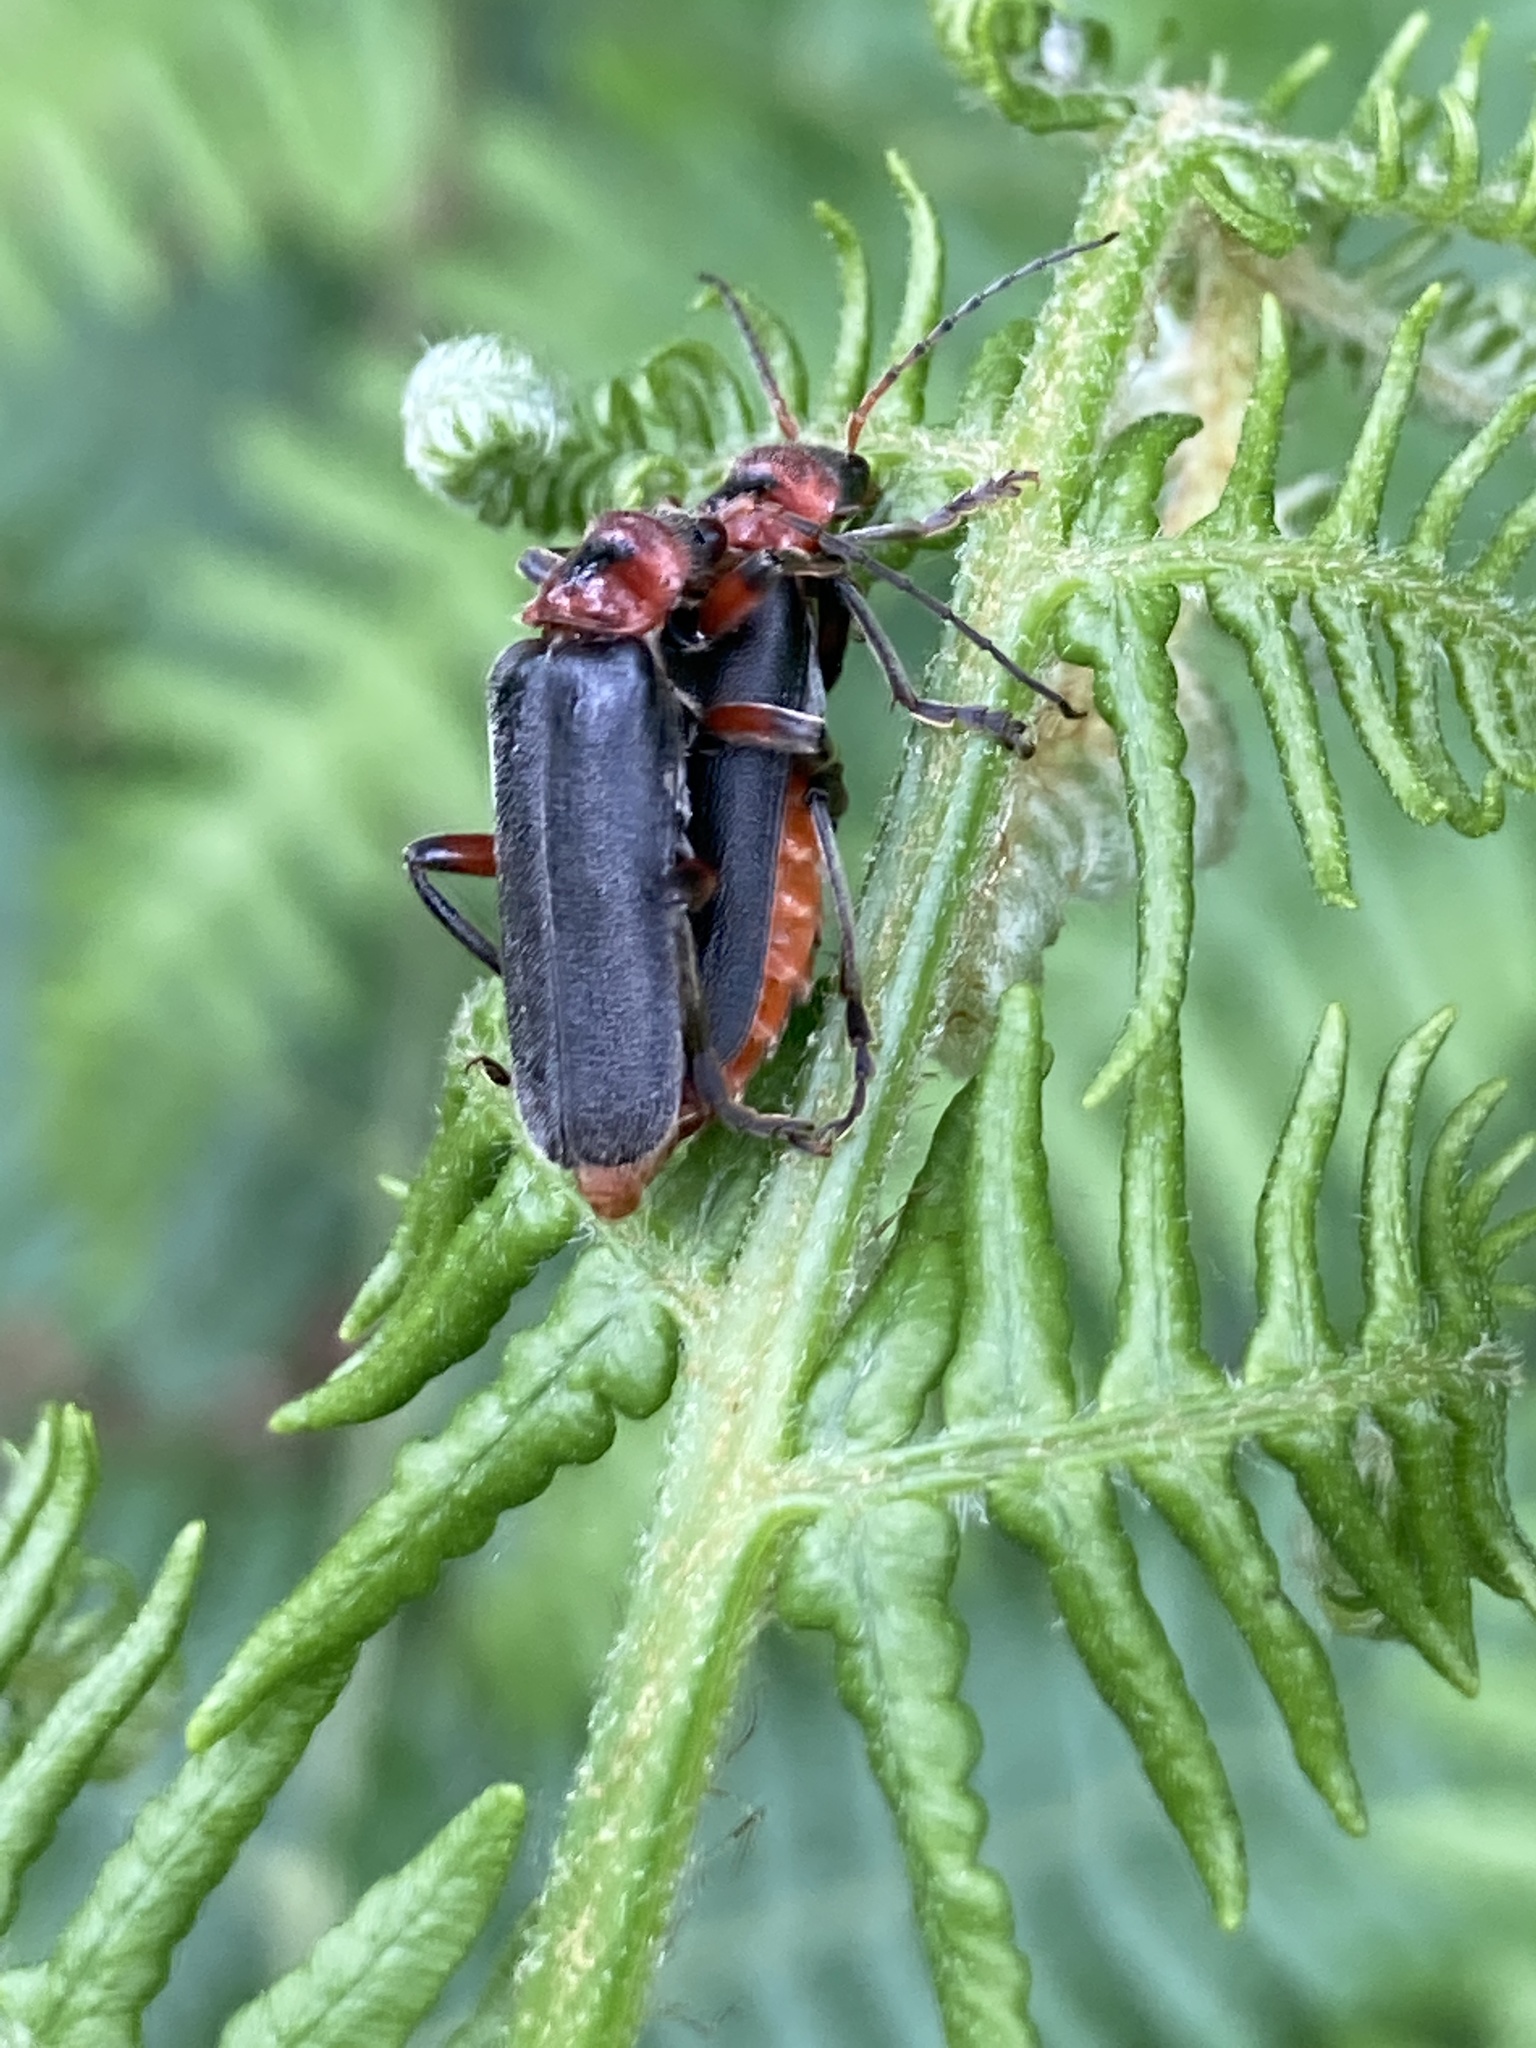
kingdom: Animalia
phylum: Arthropoda
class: Insecta
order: Coleoptera
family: Cantharidae
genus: Cantharis
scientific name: Cantharis rustica
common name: Soldier beetle
